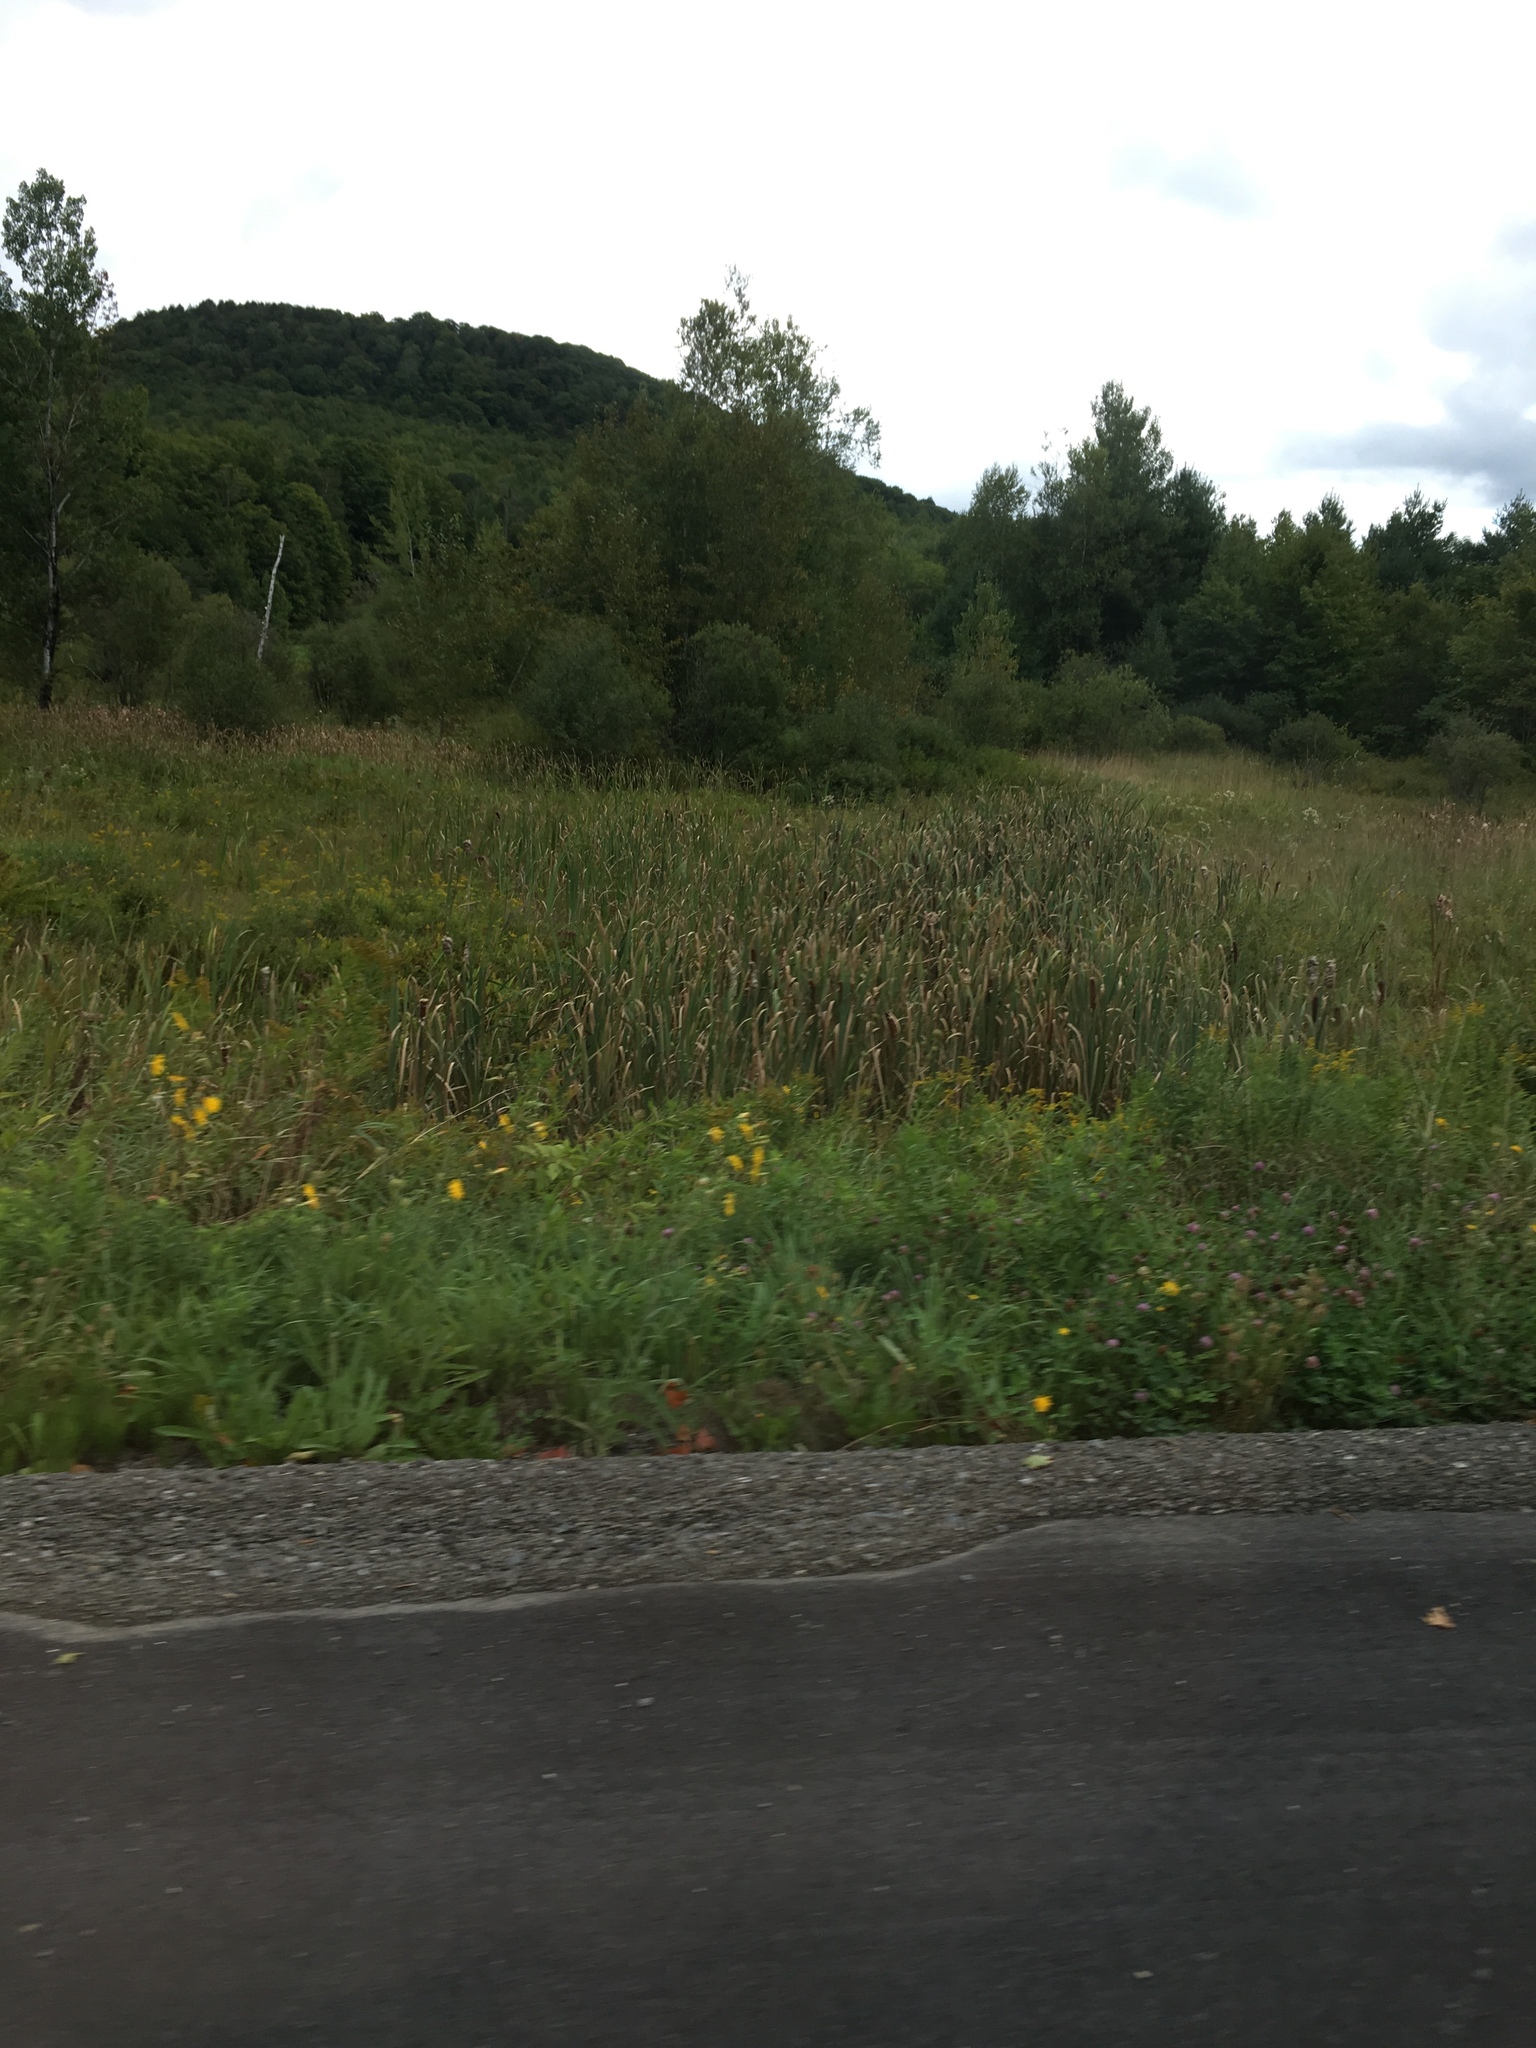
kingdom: Plantae
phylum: Tracheophyta
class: Liliopsida
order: Poales
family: Typhaceae
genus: Typha
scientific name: Typha
